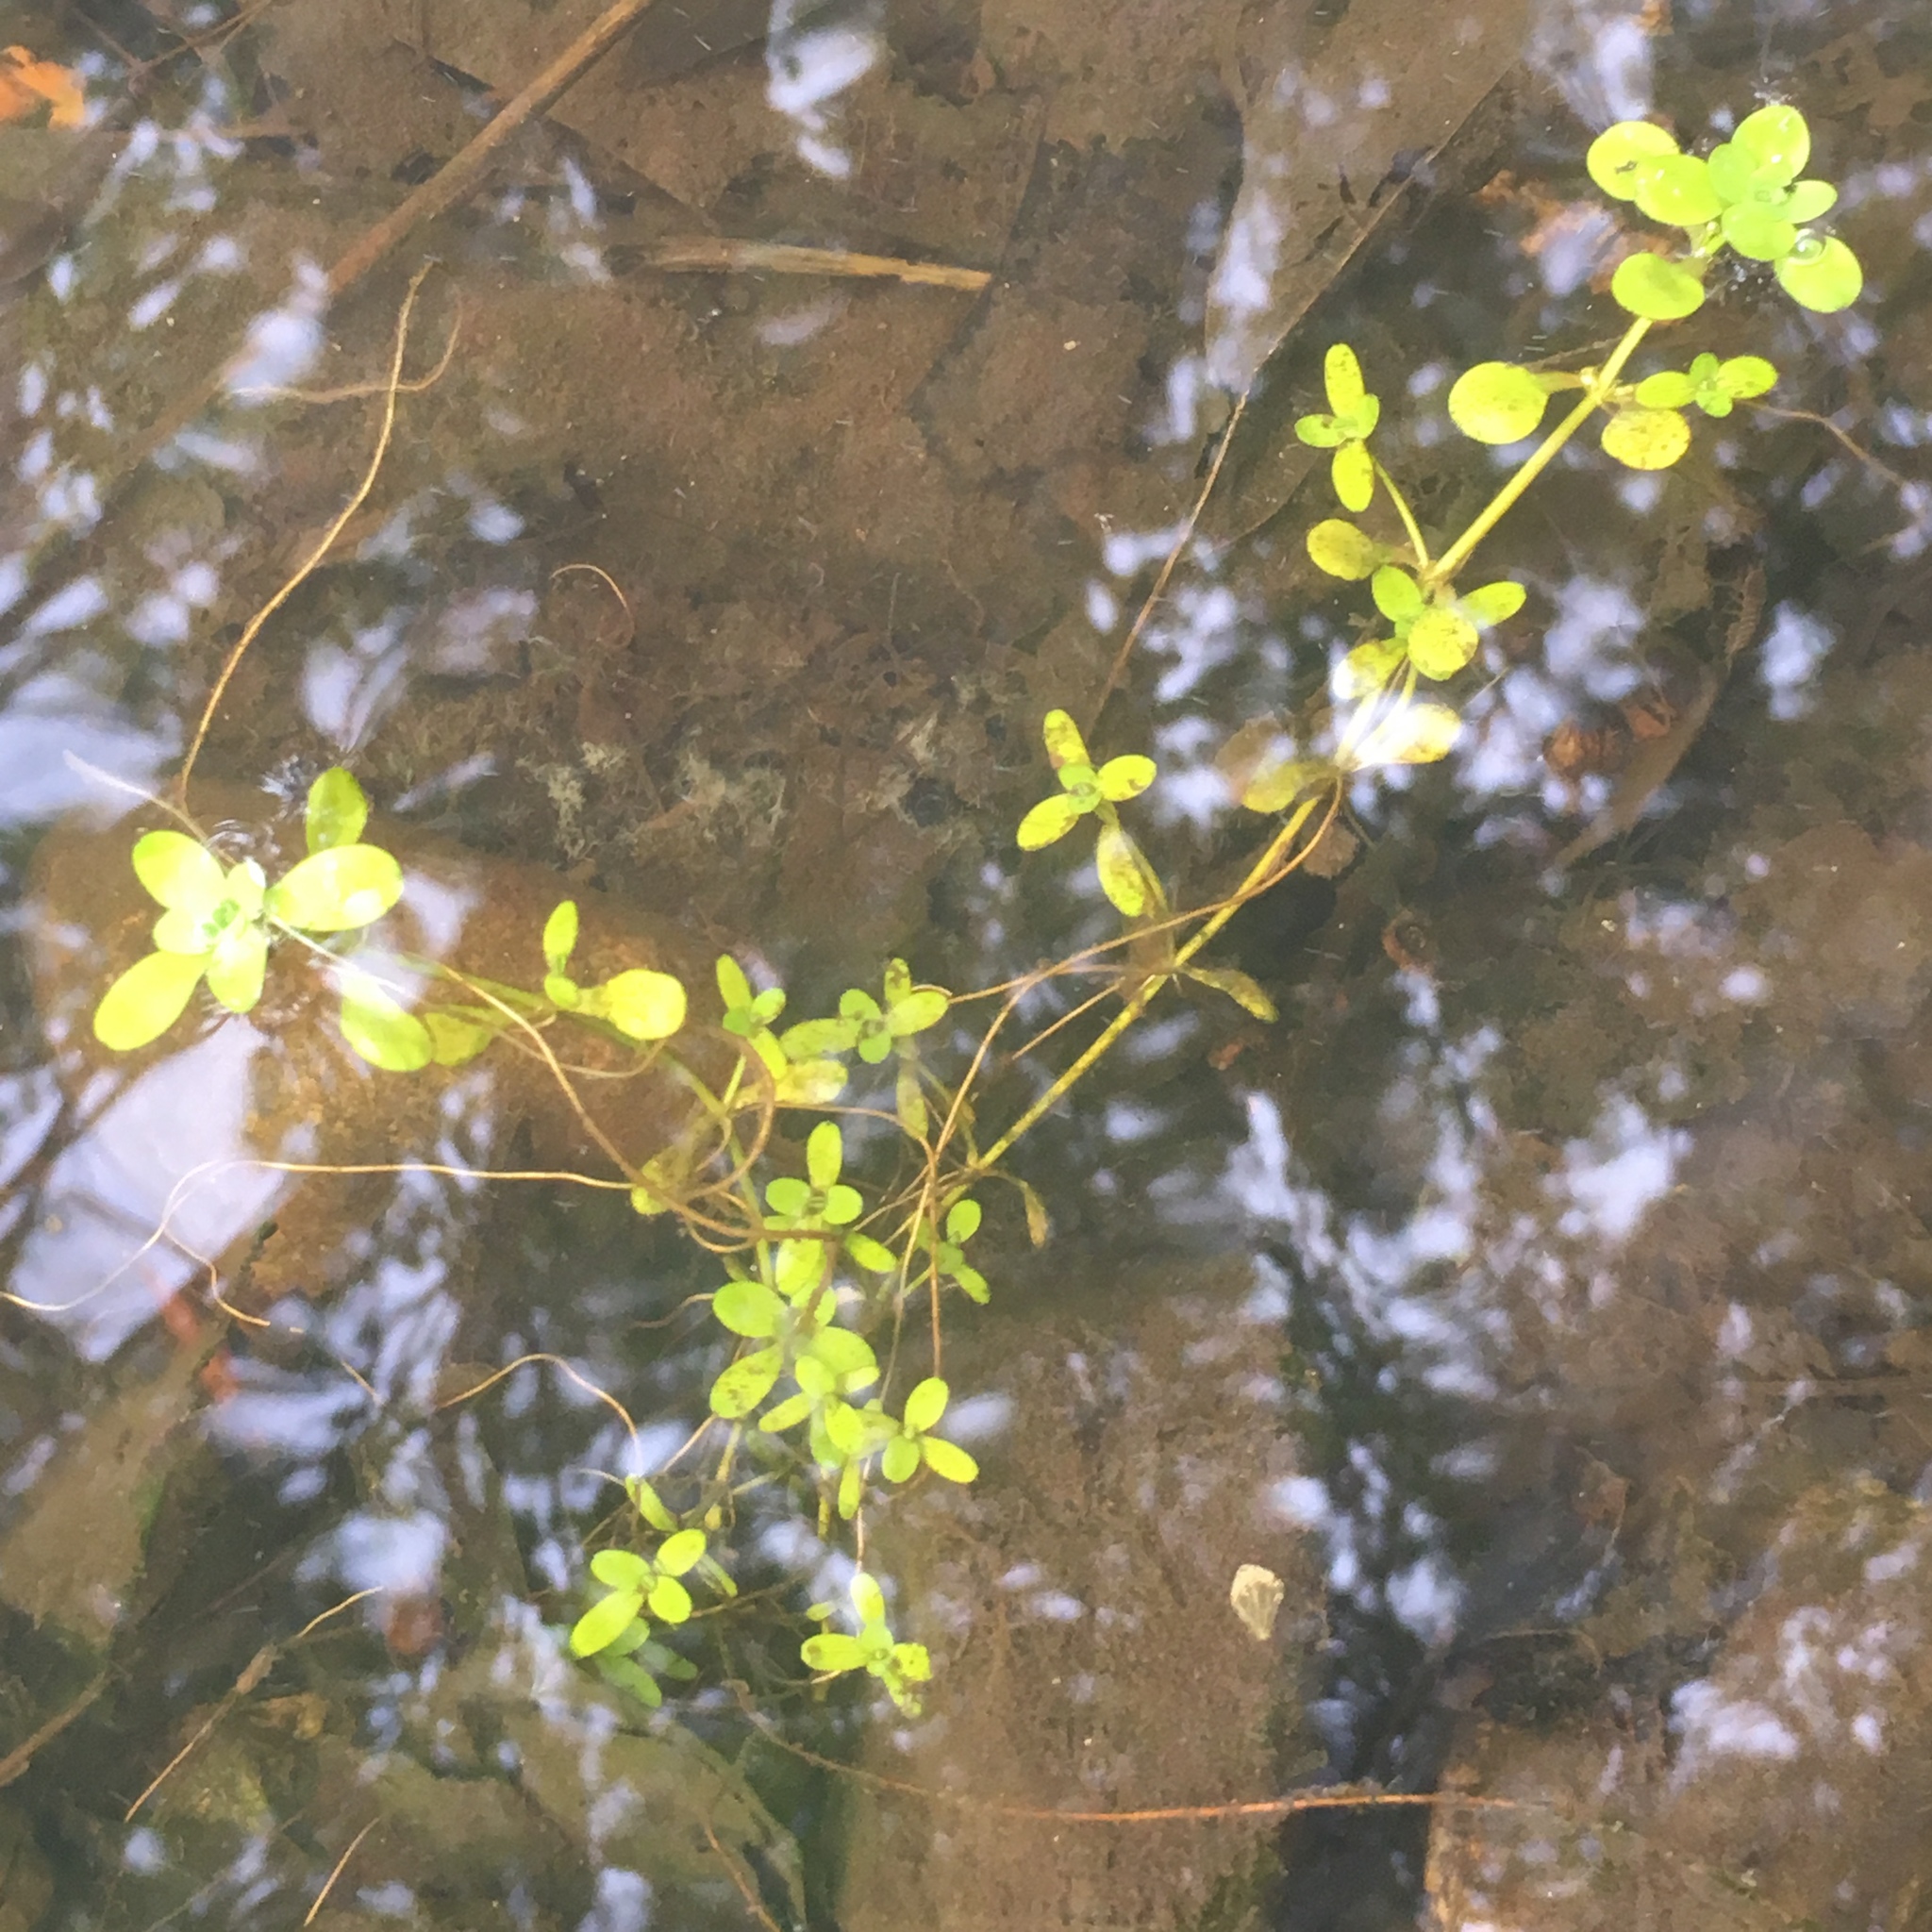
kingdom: Plantae
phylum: Tracheophyta
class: Magnoliopsida
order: Lamiales
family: Plantaginaceae
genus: Callitriche
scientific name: Callitriche stagnalis
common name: Common water-starwort
